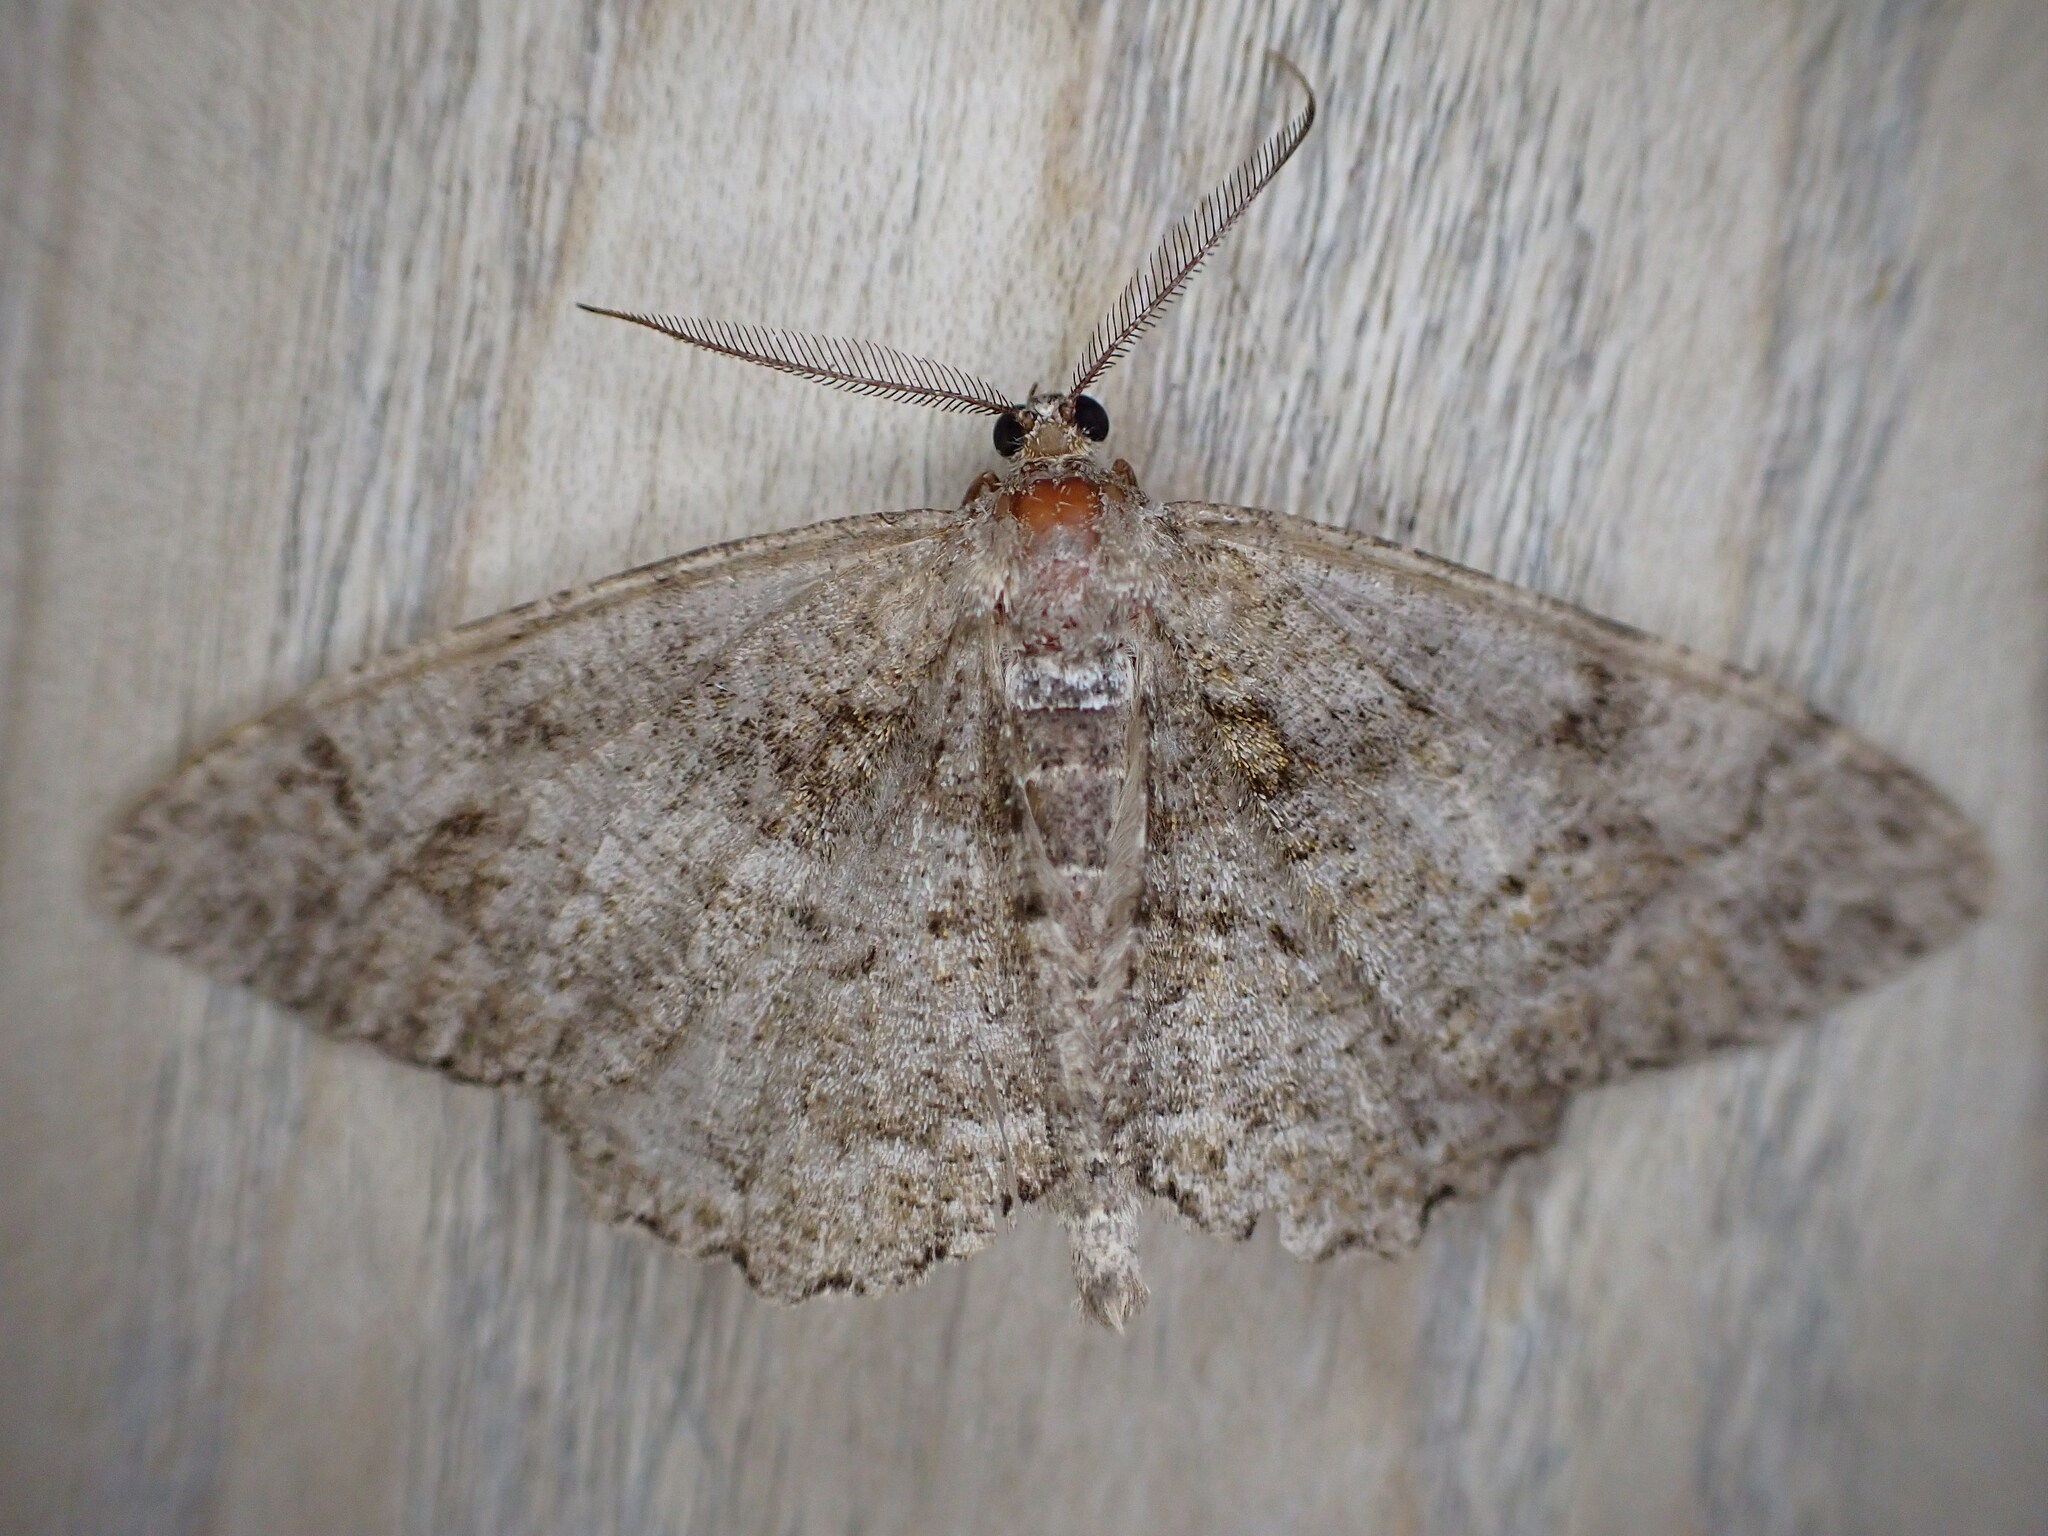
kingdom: Animalia
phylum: Arthropoda
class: Insecta
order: Lepidoptera
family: Geometridae
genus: Alcis
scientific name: Alcis repandata
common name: Mottled beauty
